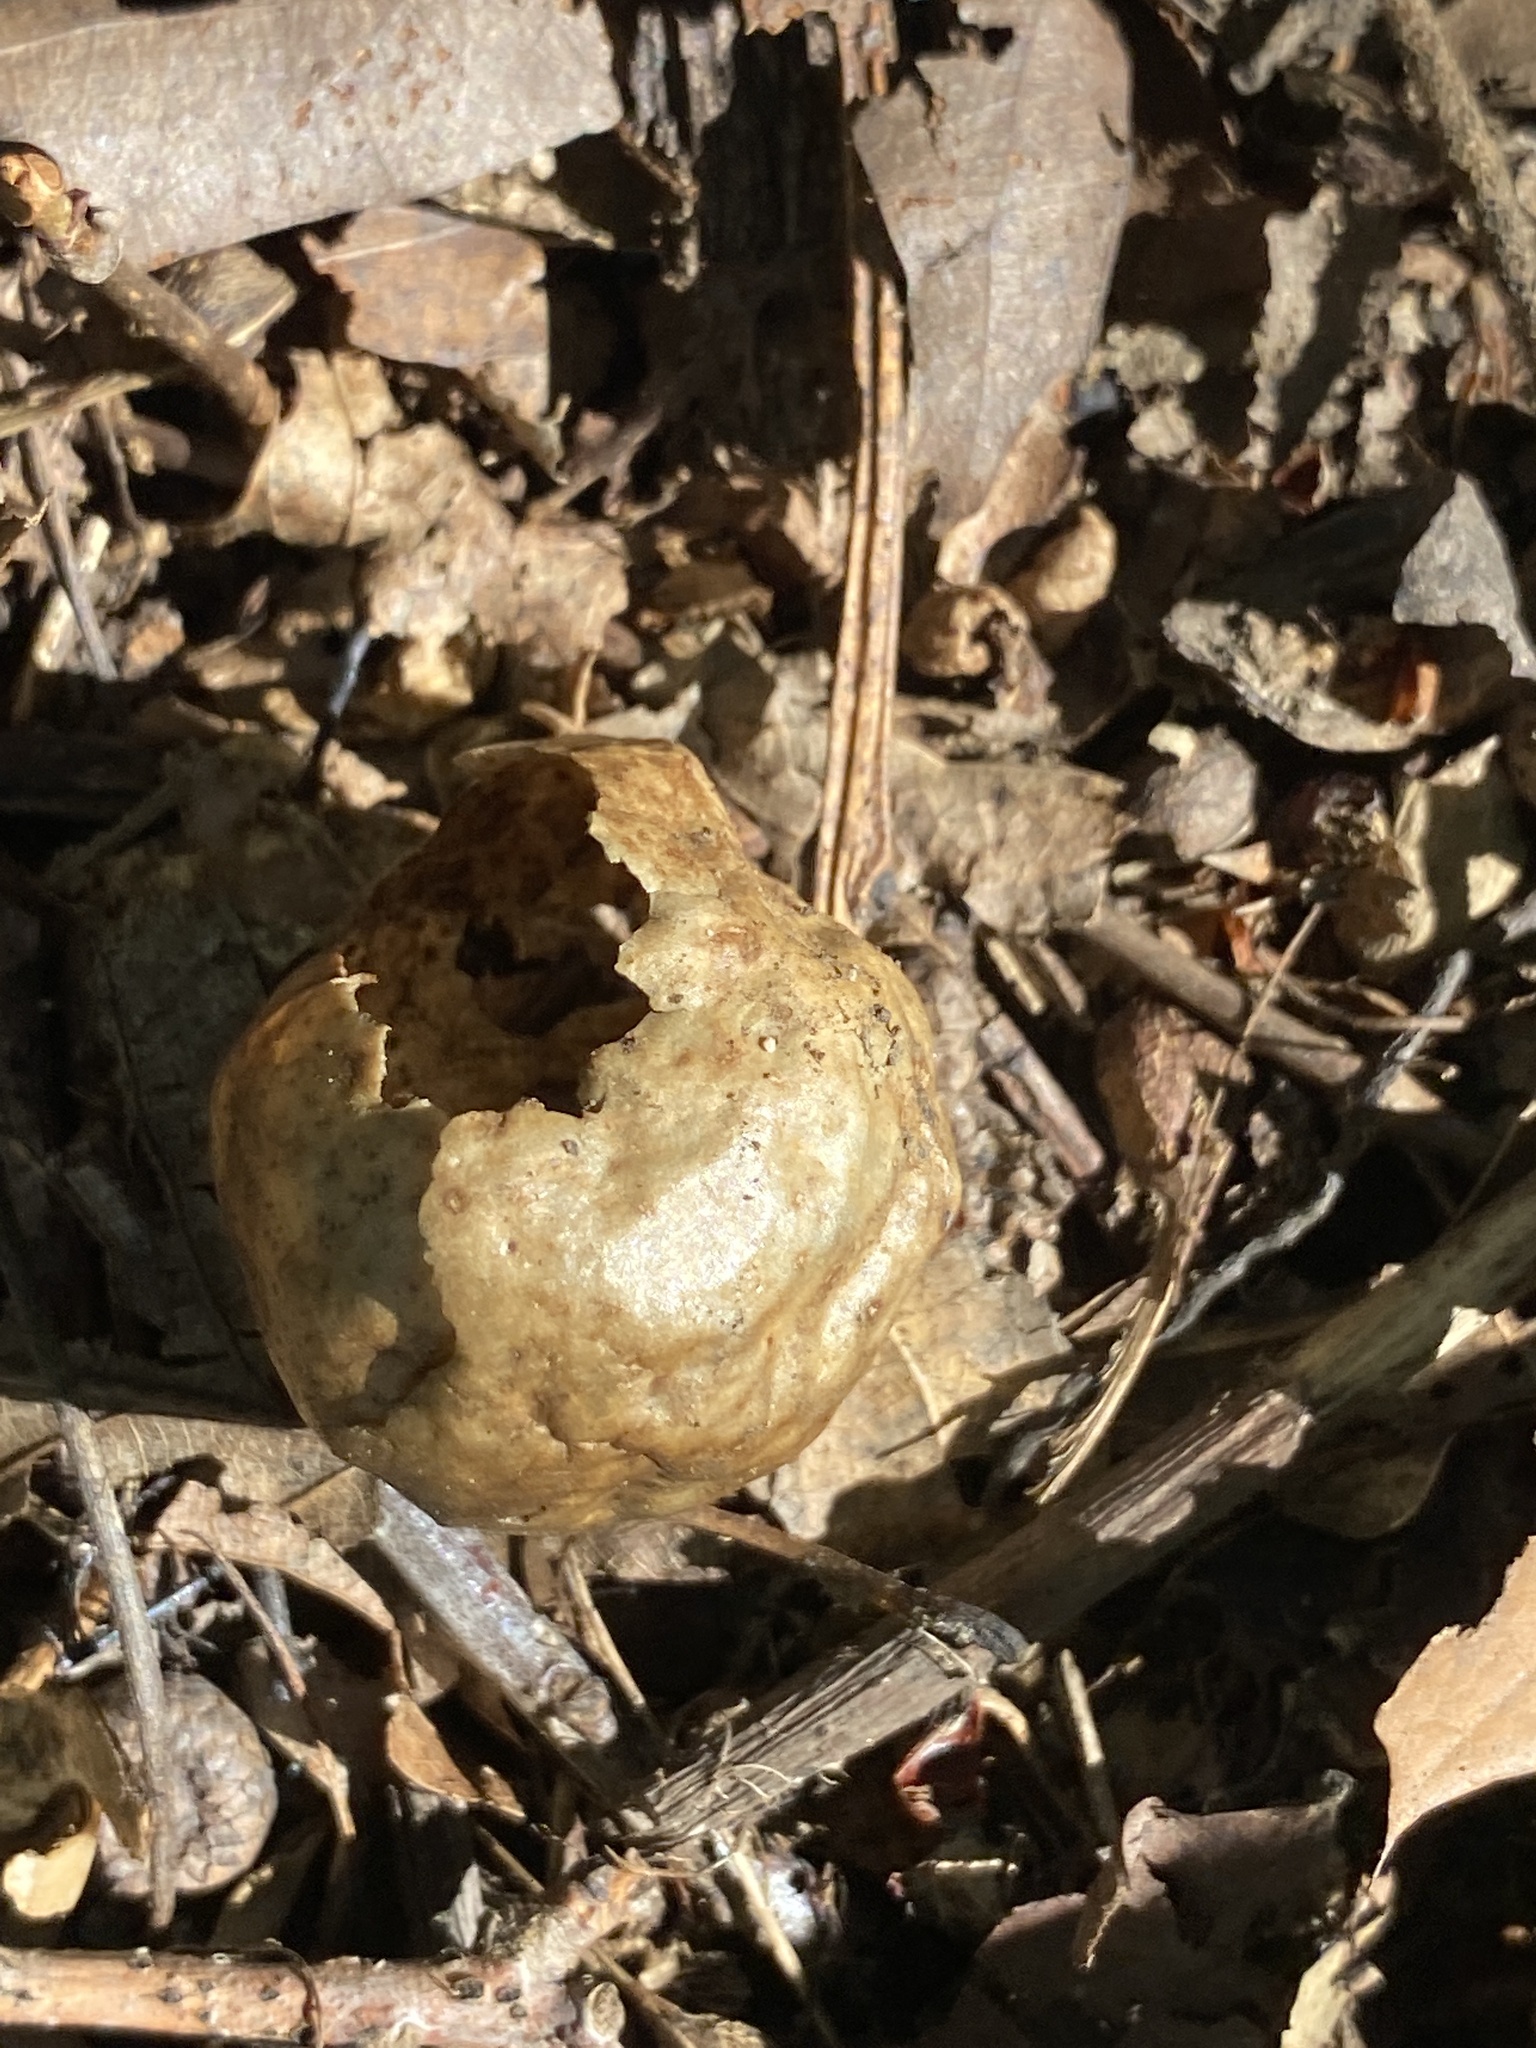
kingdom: Animalia
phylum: Arthropoda
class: Insecta
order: Hymenoptera
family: Cynipidae
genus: Amphibolips
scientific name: Amphibolips
